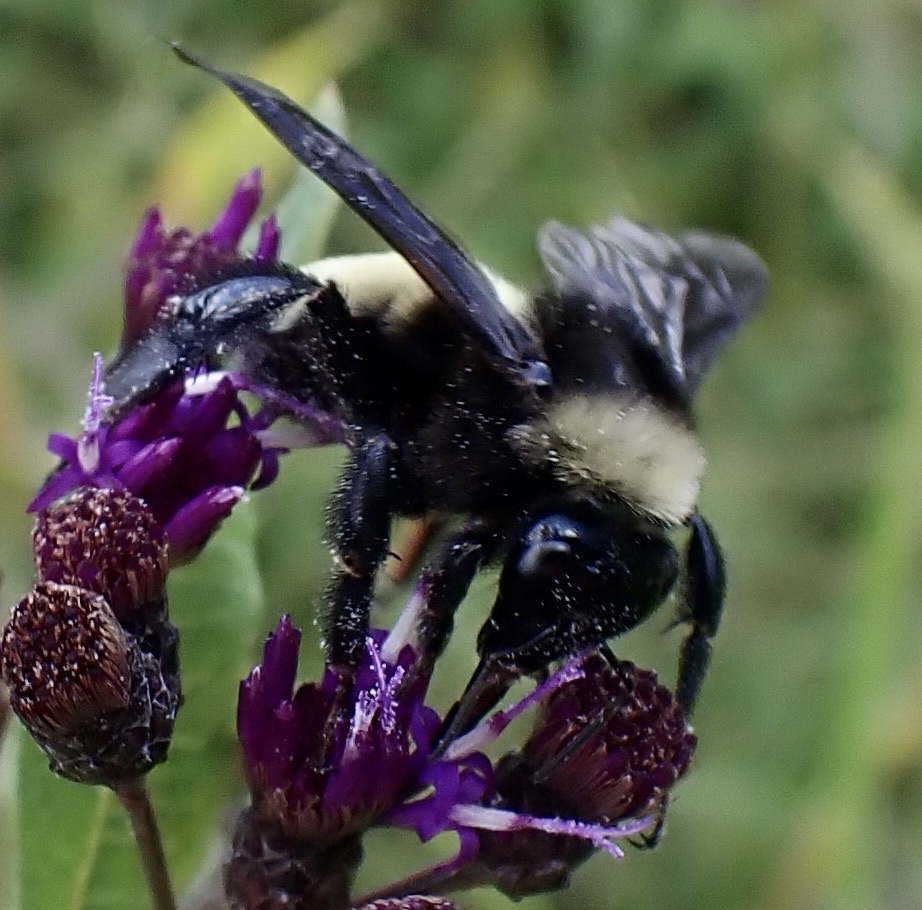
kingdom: Animalia
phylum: Arthropoda
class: Insecta
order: Hymenoptera
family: Apidae
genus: Bombus
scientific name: Bombus pensylvanicus
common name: Bumble bee
